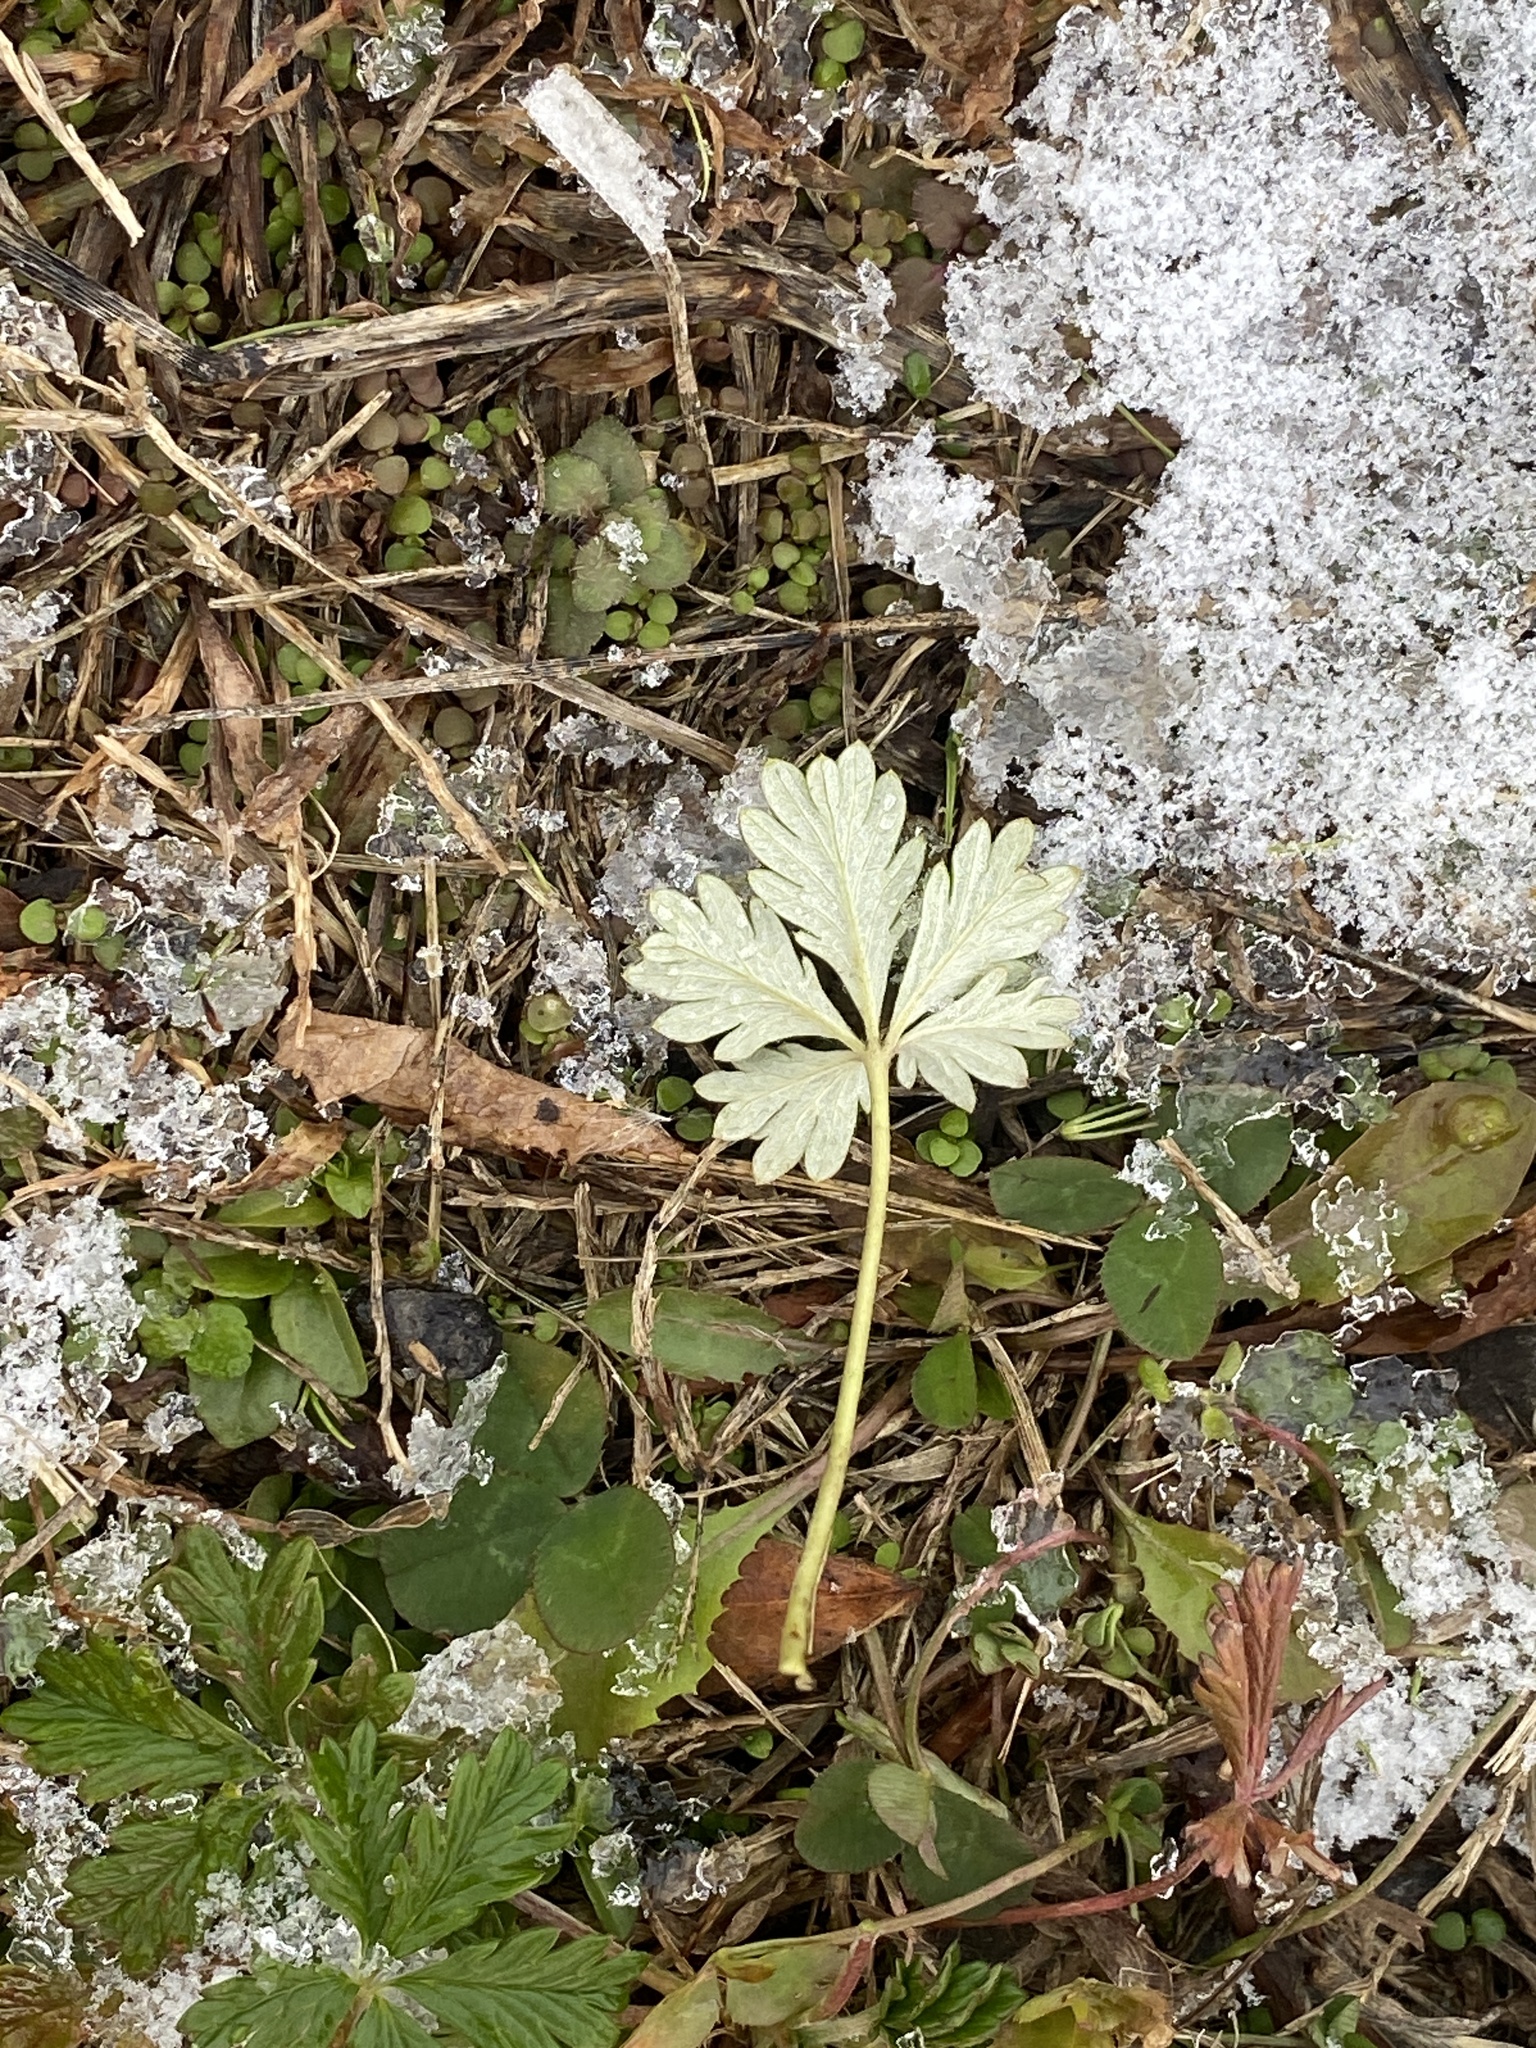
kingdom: Plantae
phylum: Tracheophyta
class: Magnoliopsida
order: Rosales
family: Rosaceae
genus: Potentilla
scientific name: Potentilla argentea
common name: Hoary cinquefoil
